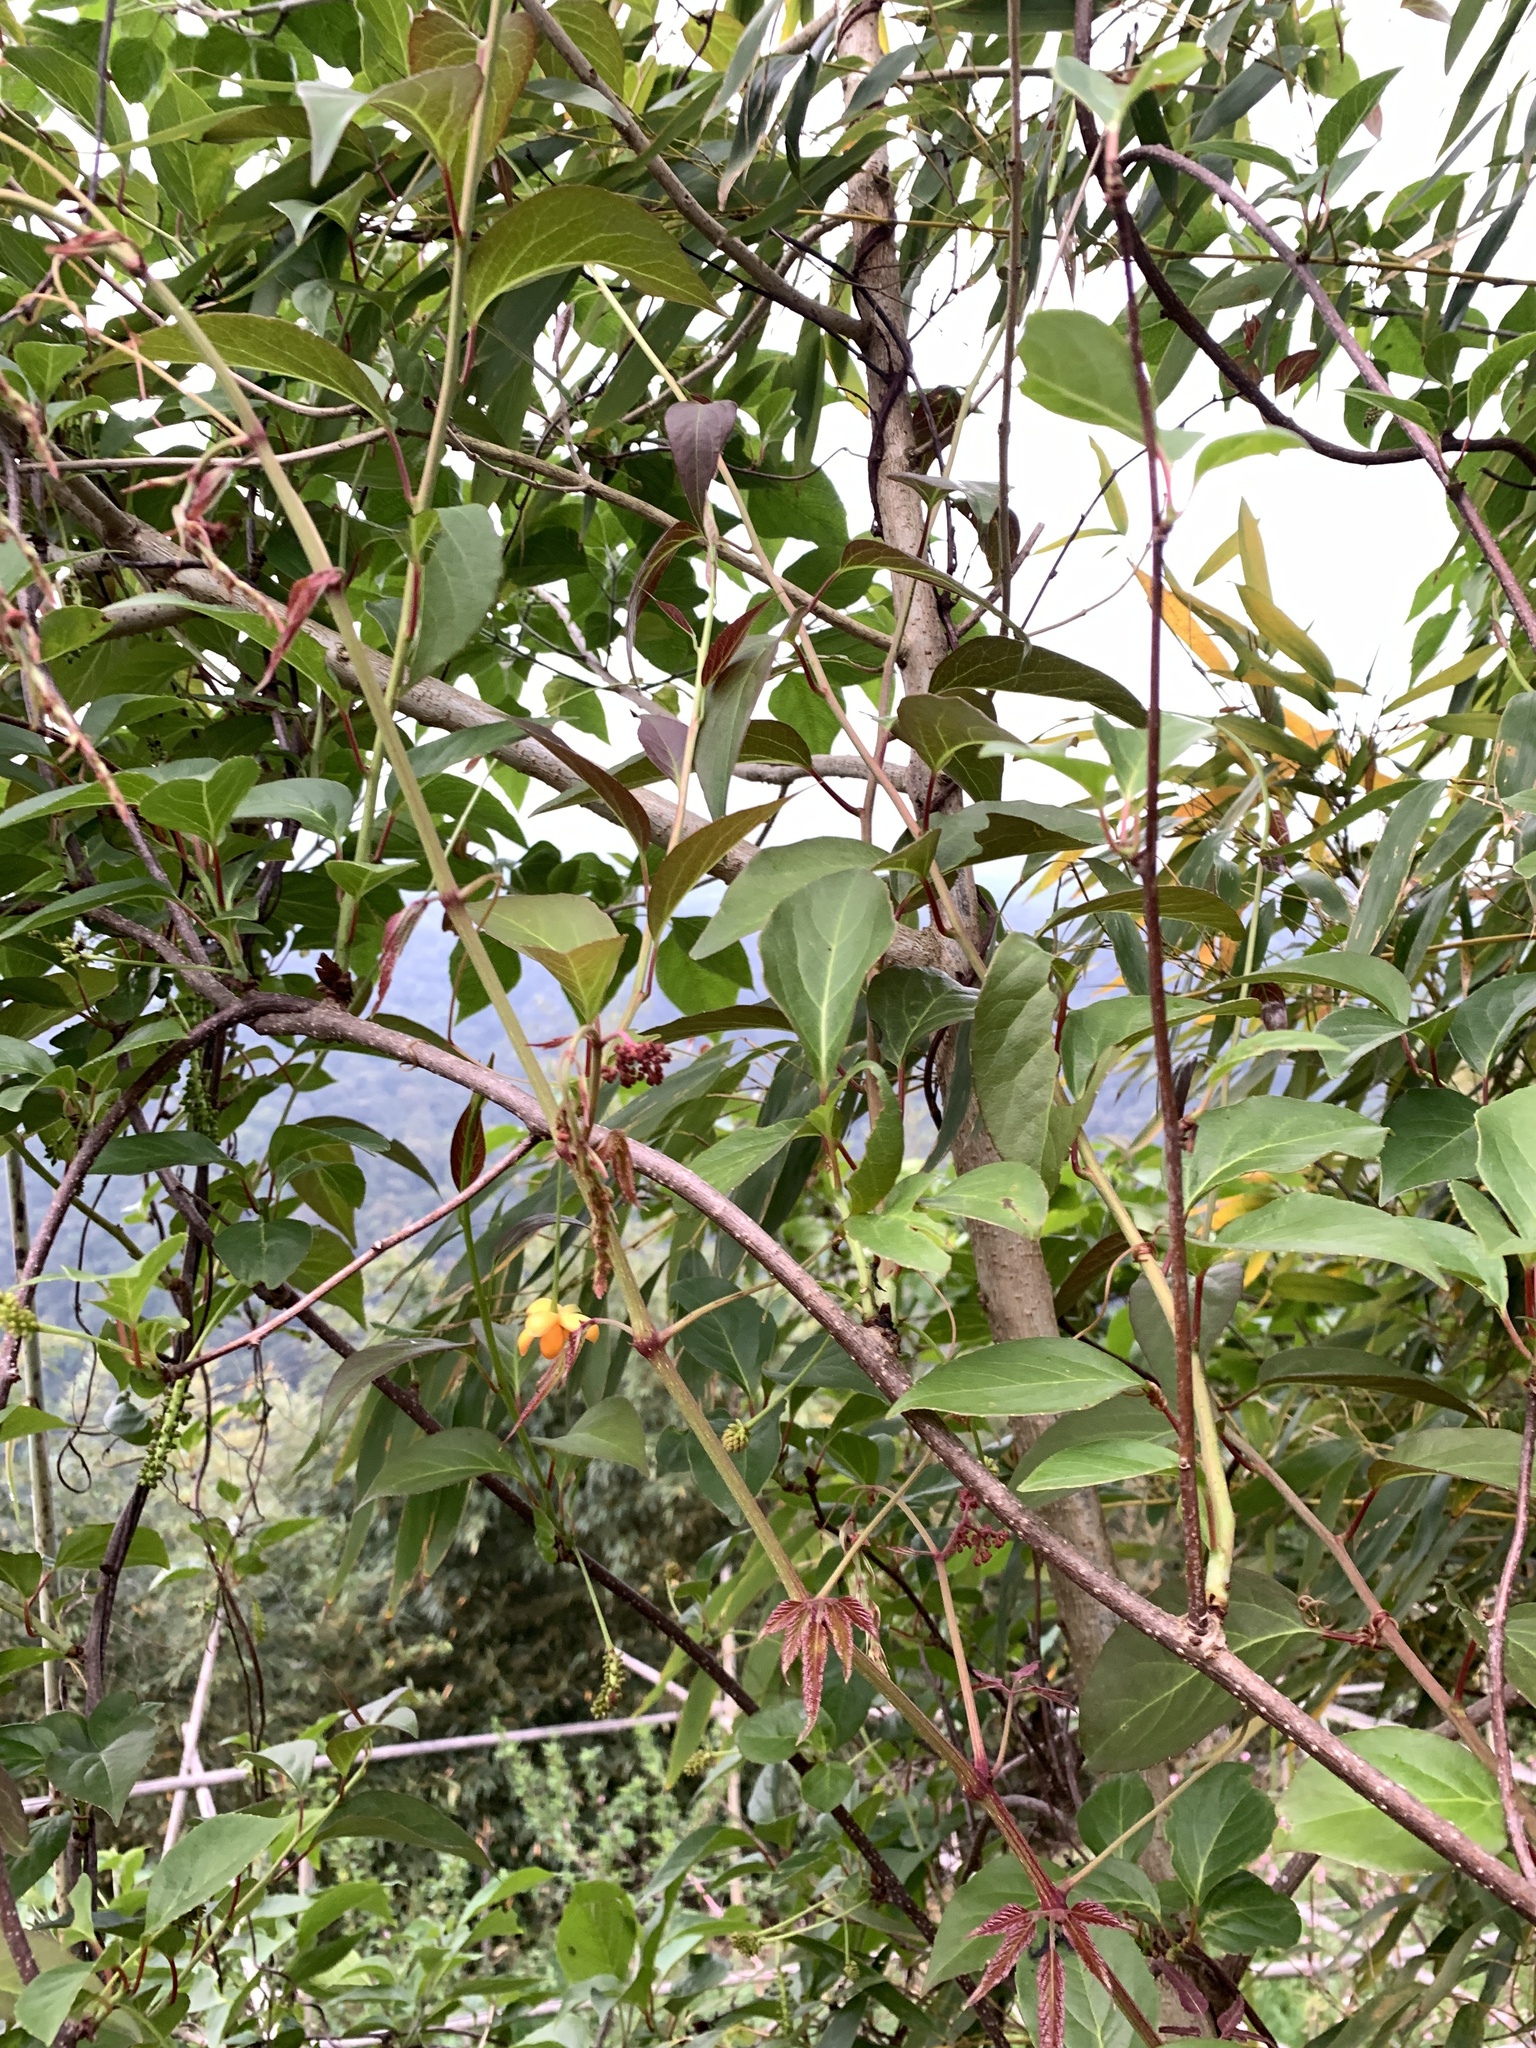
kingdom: Plantae
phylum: Tracheophyta
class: Magnoliopsida
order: Austrobaileyales
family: Schisandraceae
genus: Schisandra
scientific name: Schisandra arisanensis
